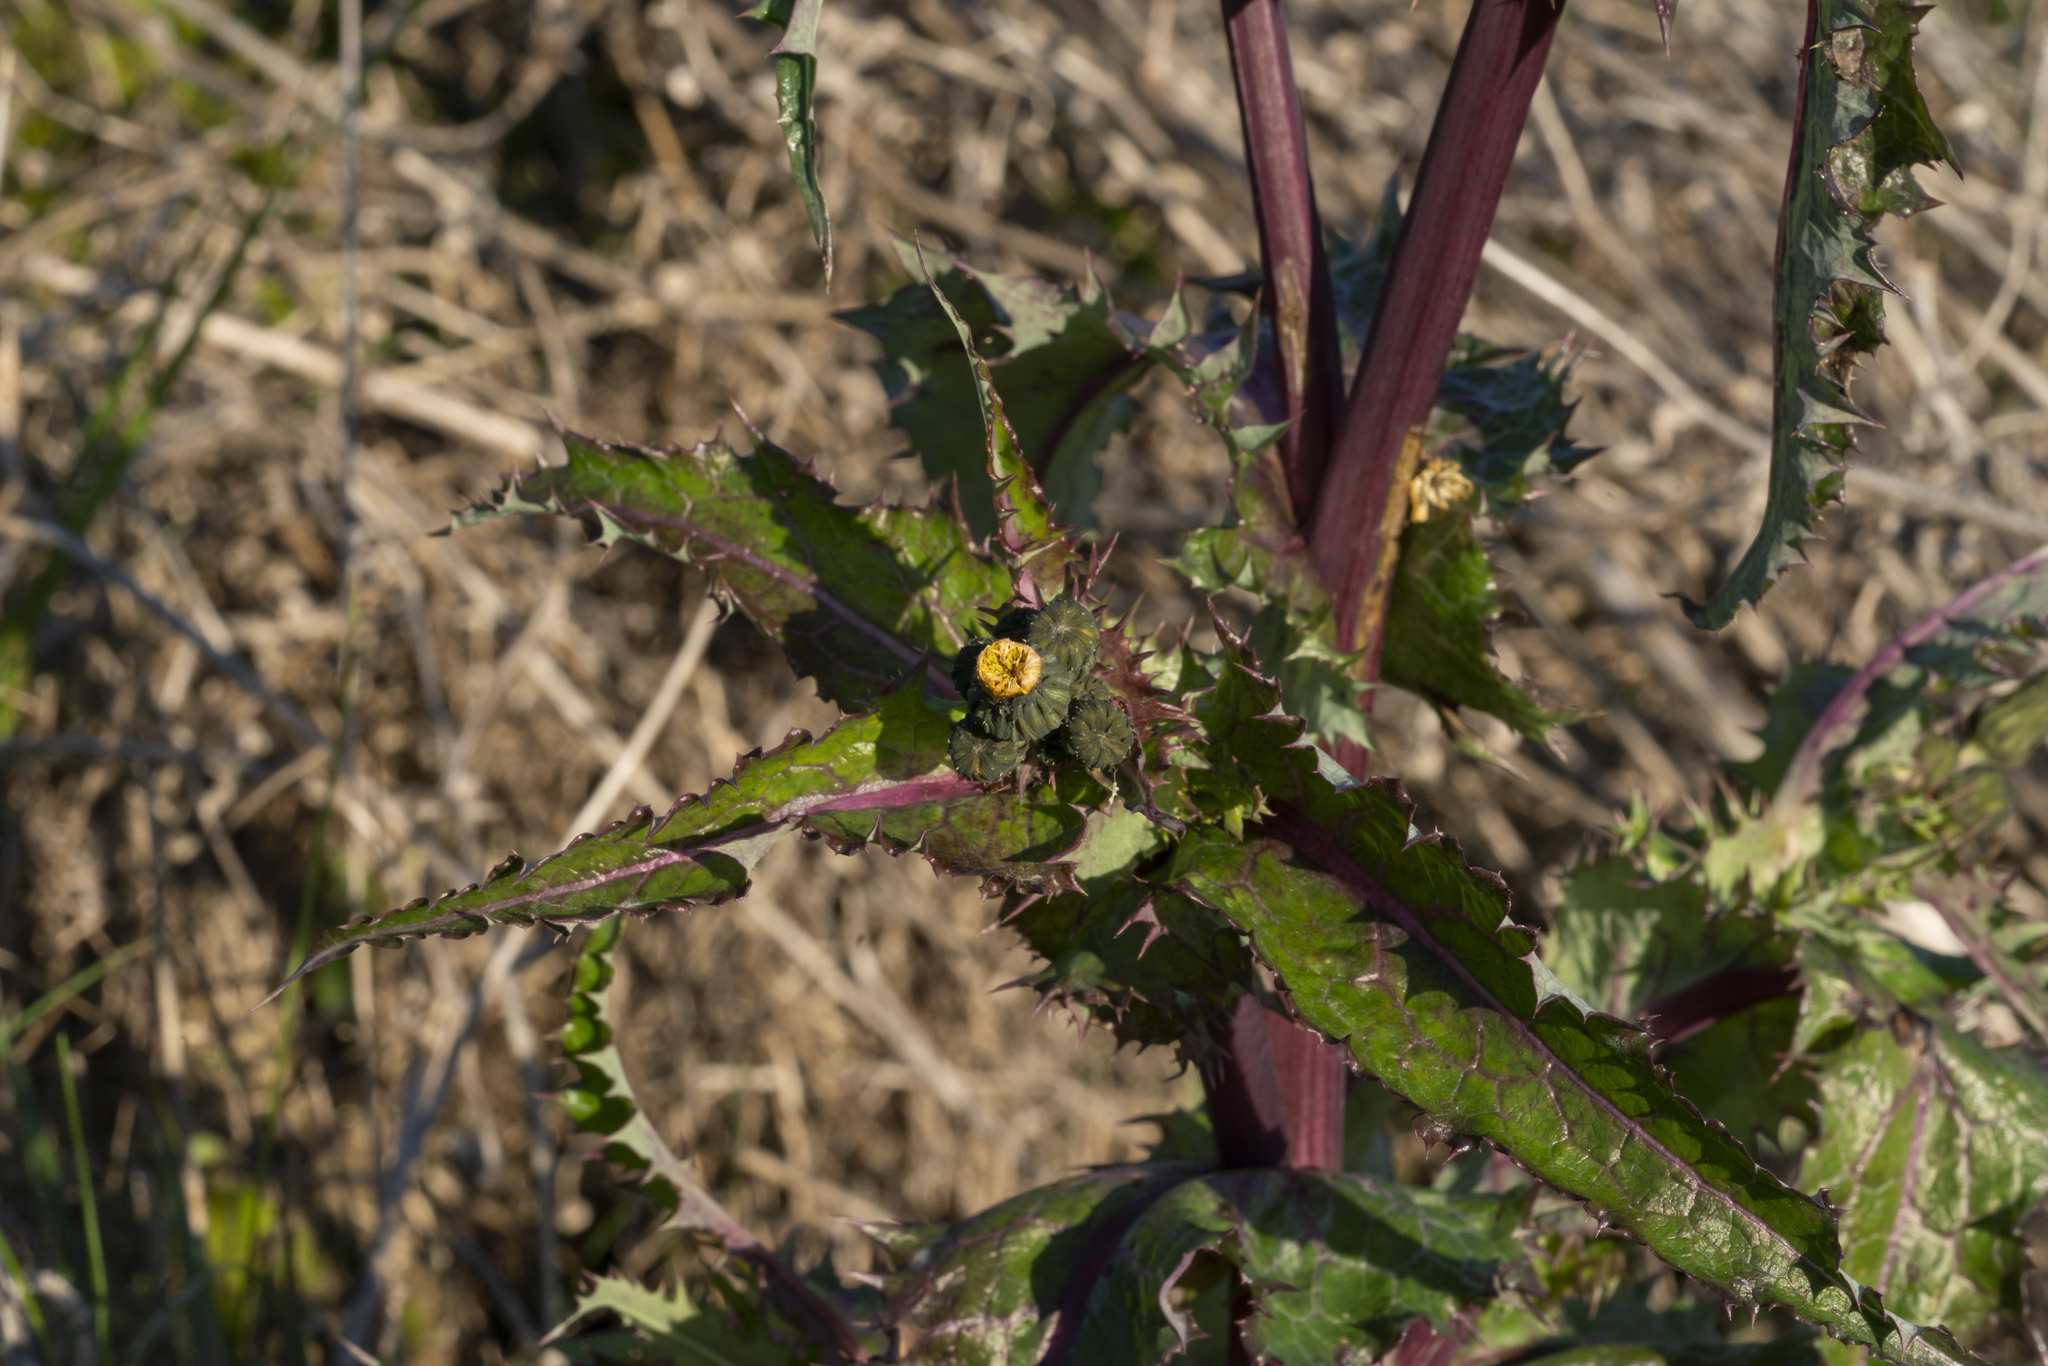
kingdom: Plantae
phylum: Tracheophyta
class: Magnoliopsida
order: Asterales
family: Asteraceae
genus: Sonchus
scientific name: Sonchus asper
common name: Prickly sow-thistle
